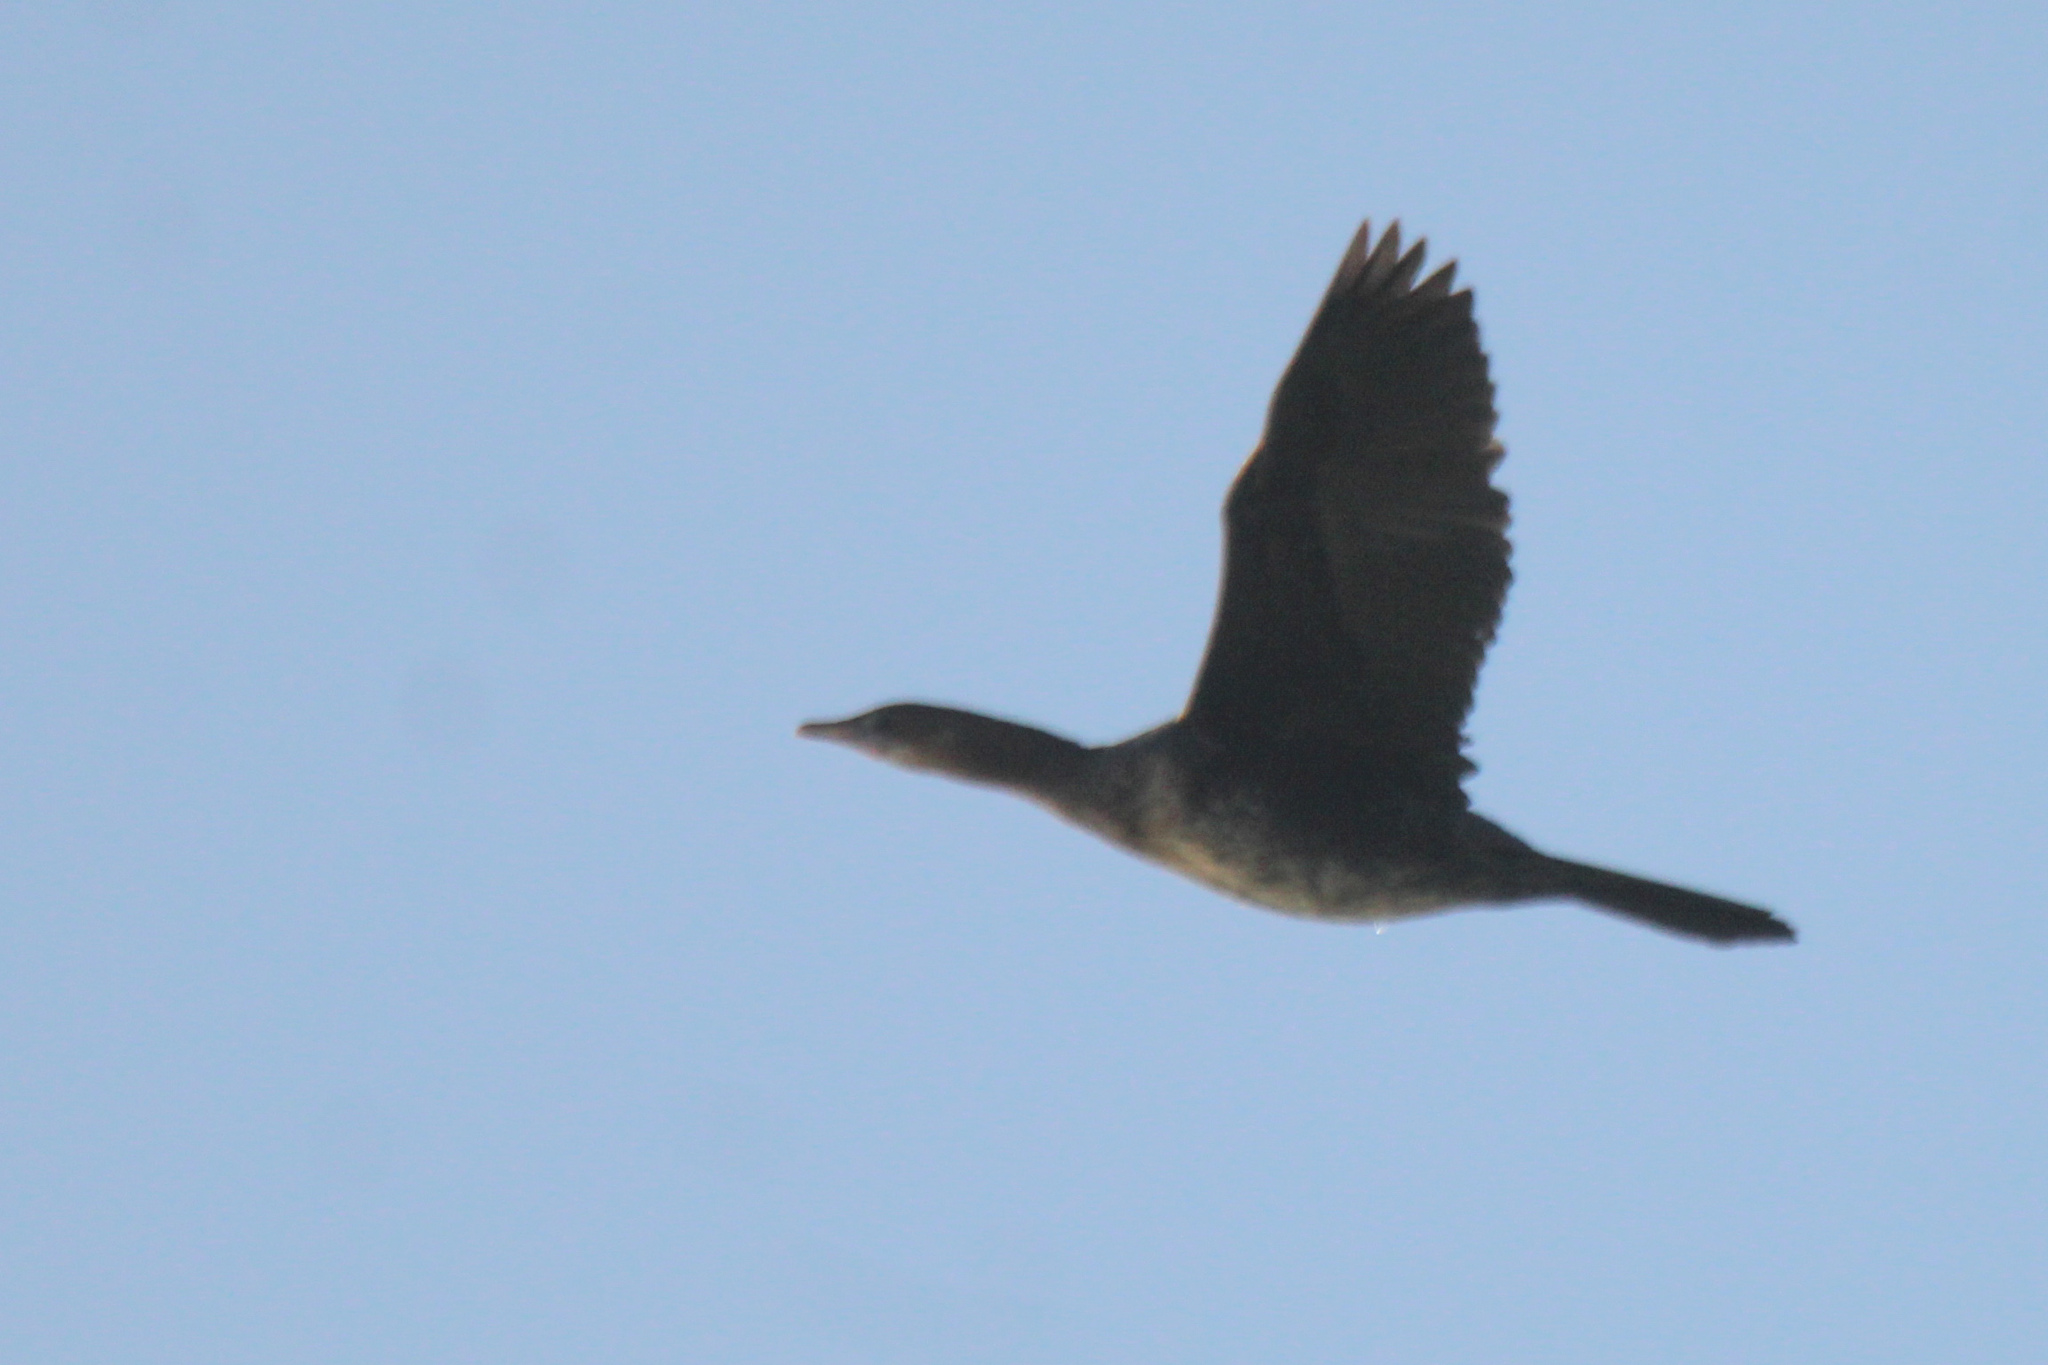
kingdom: Animalia
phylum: Chordata
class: Aves
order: Suliformes
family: Phalacrocoracidae
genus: Microcarbo
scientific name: Microcarbo pygmaeus
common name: Pygmy cormorant
